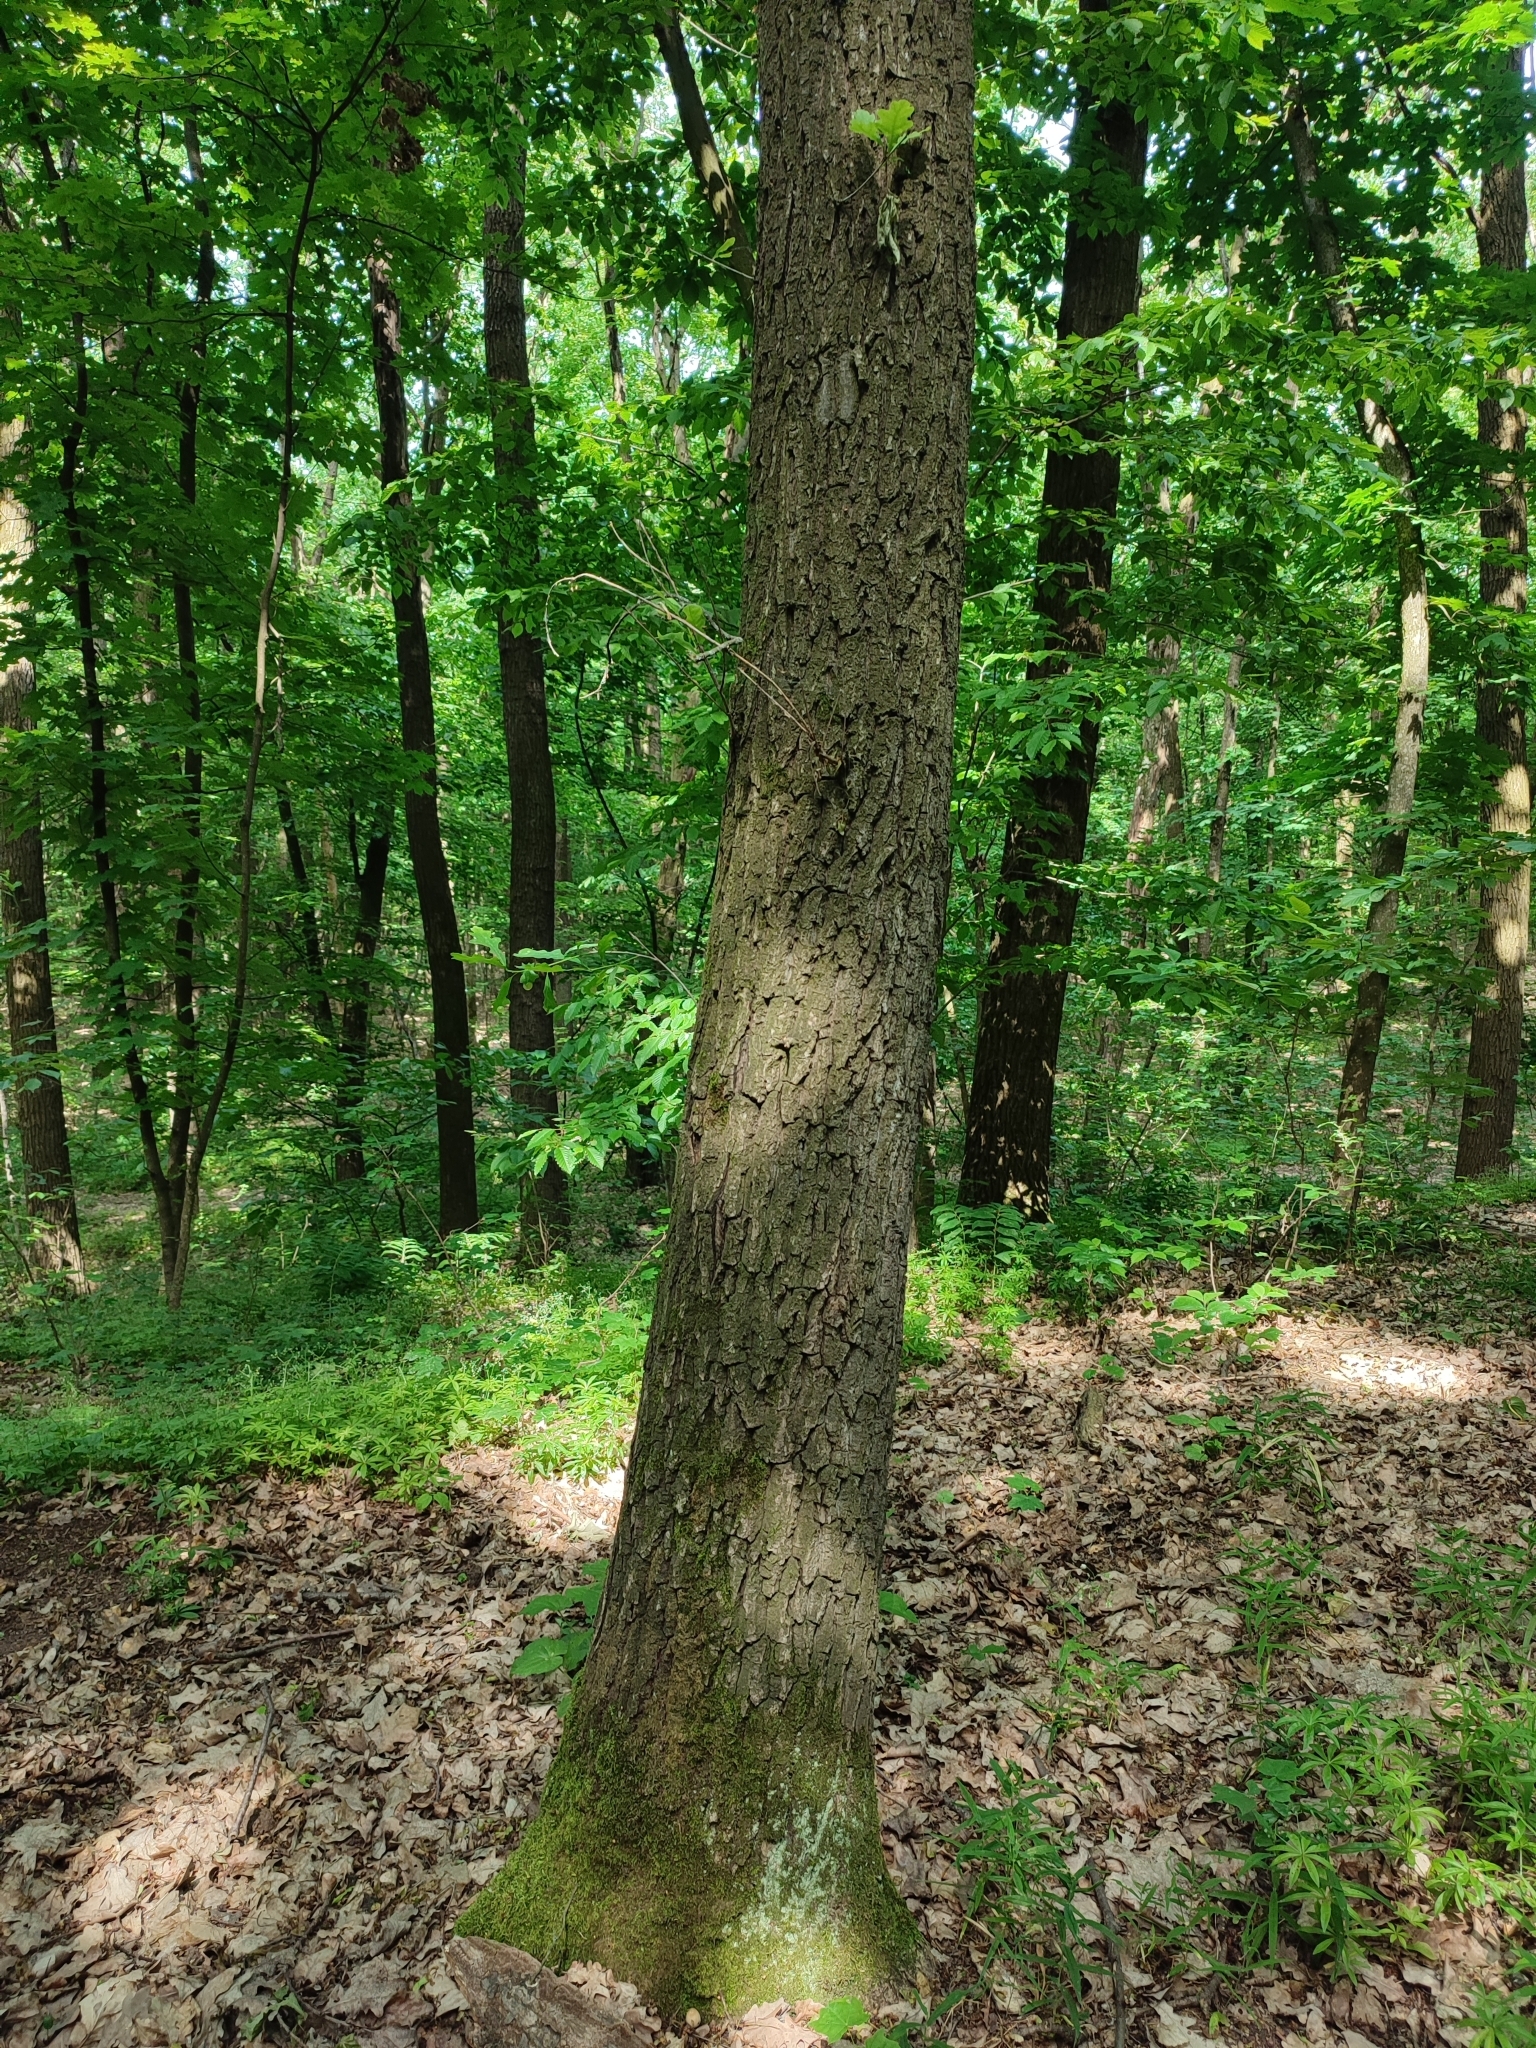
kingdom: Plantae
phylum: Tracheophyta
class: Magnoliopsida
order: Fagales
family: Fagaceae
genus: Quercus
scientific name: Quercus robur
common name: Pedunculate oak
